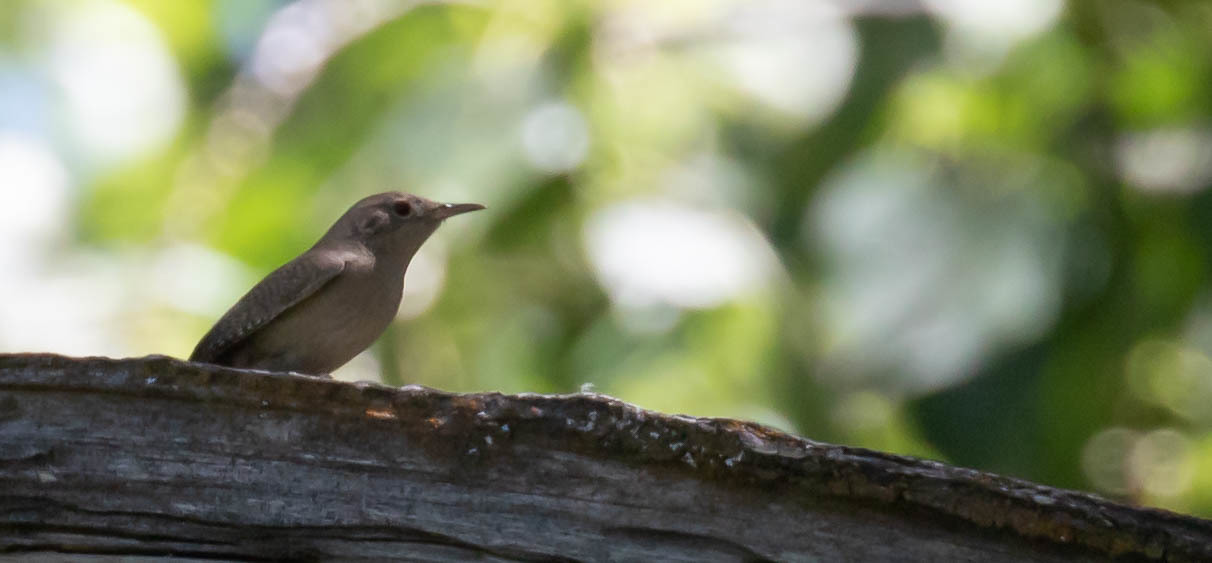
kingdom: Animalia
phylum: Chordata
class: Aves
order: Passeriformes
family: Troglodytidae
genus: Troglodytes
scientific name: Troglodytes aedon
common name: House wren
